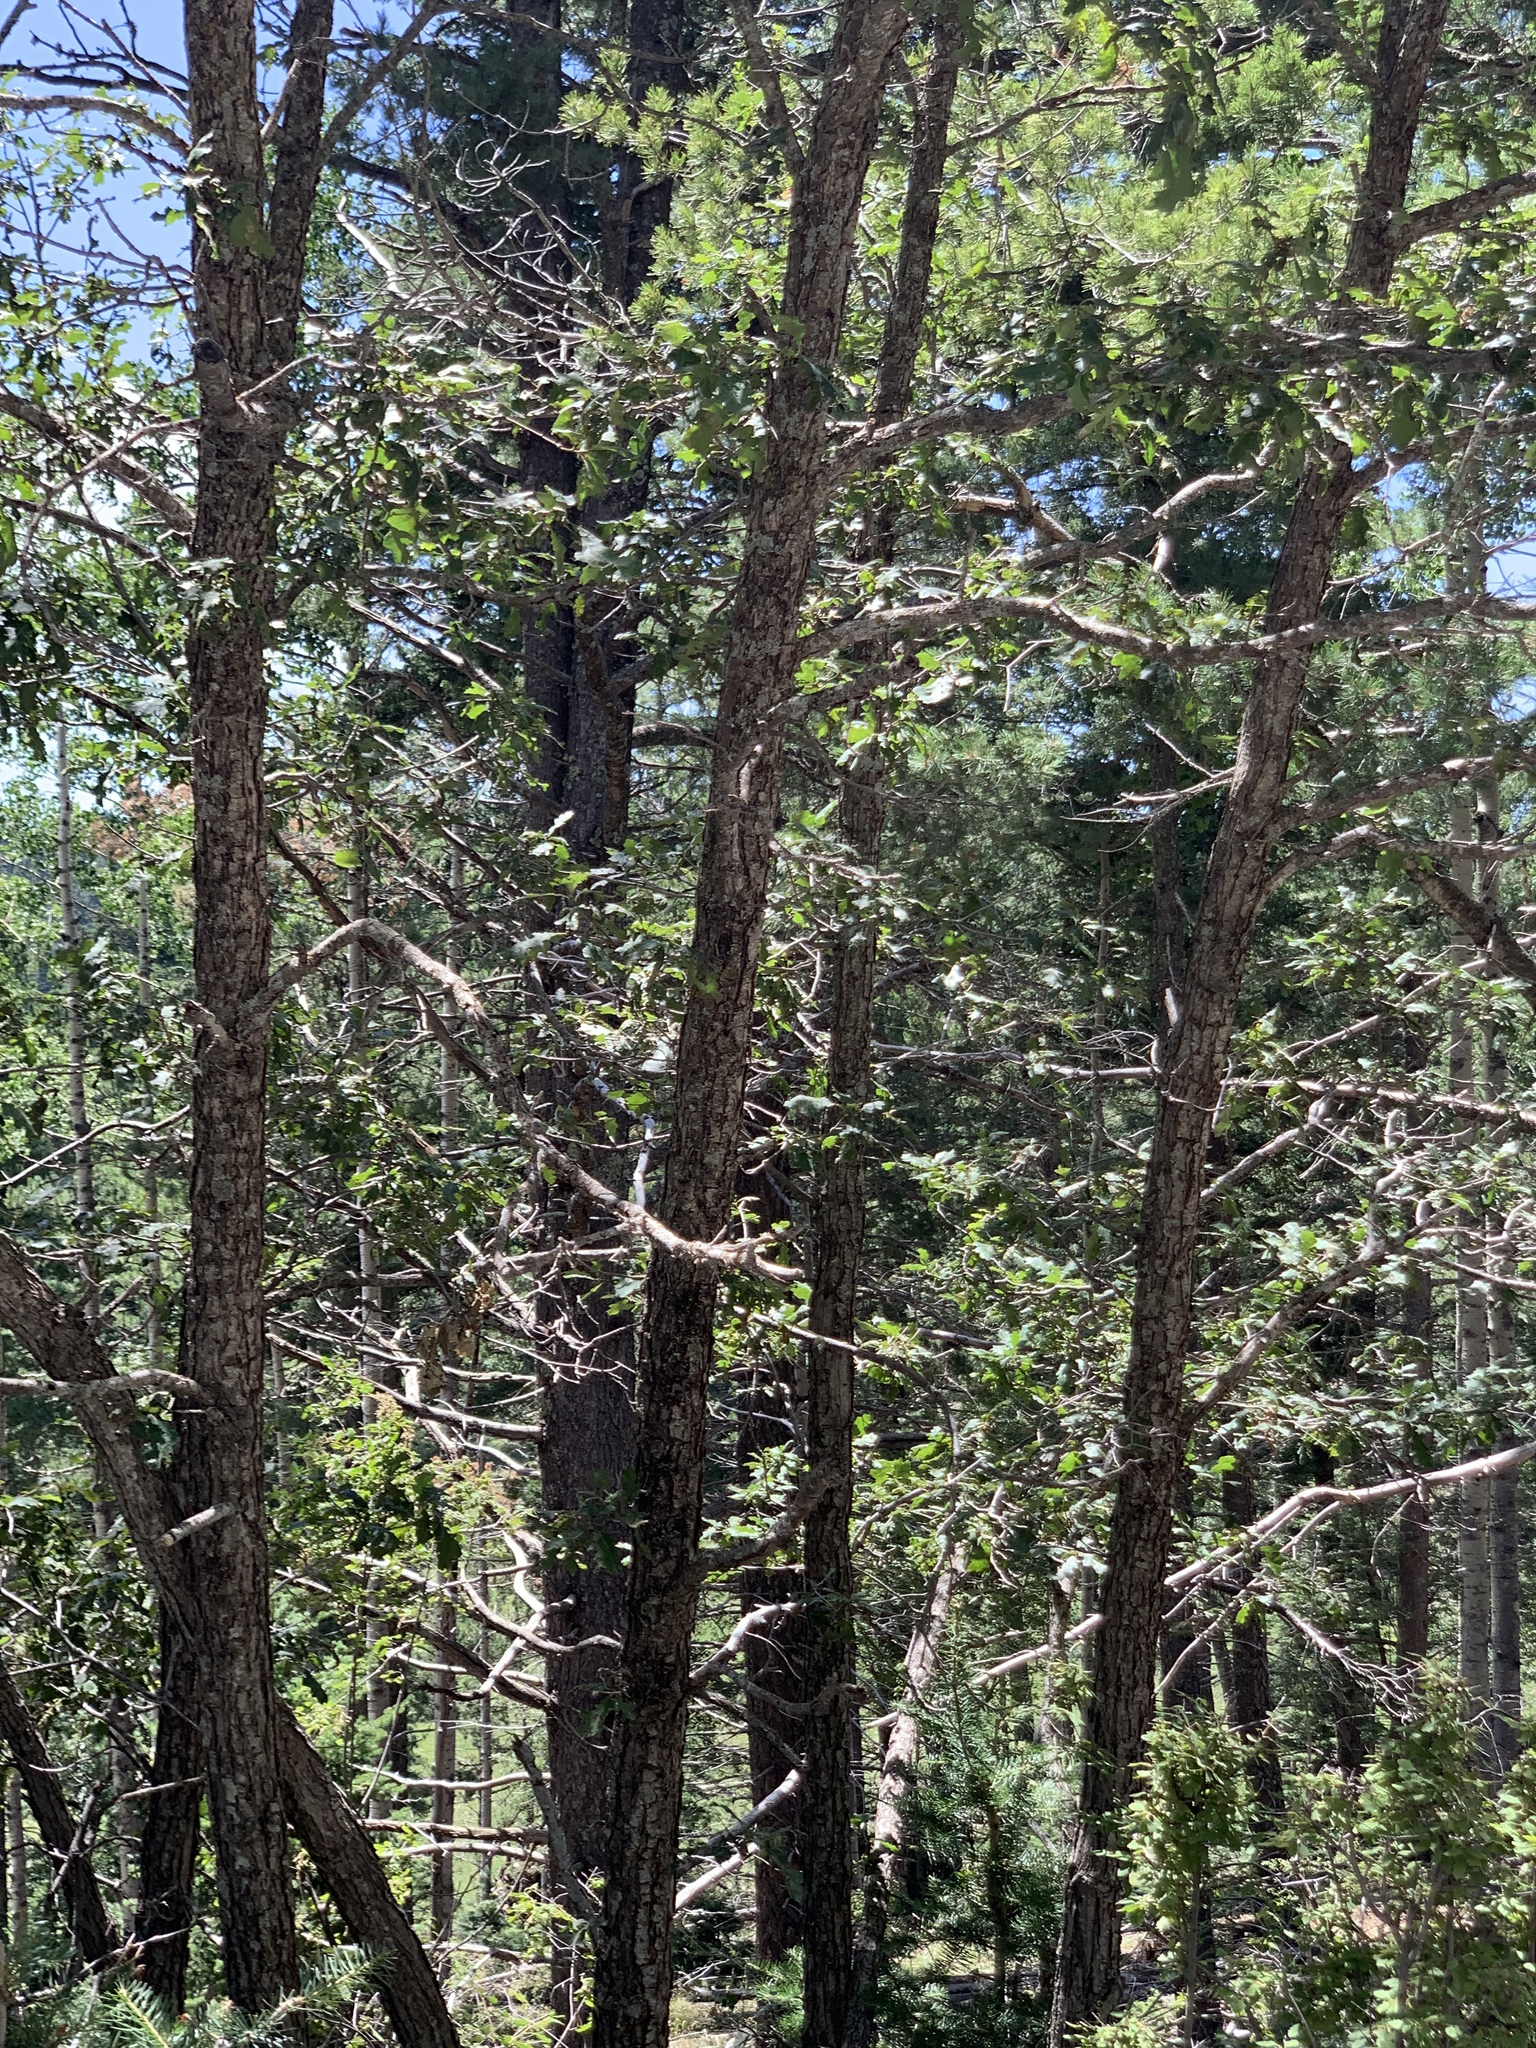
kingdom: Plantae
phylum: Tracheophyta
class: Magnoliopsida
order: Fagales
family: Fagaceae
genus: Quercus
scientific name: Quercus gambelii
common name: Gambel oak
